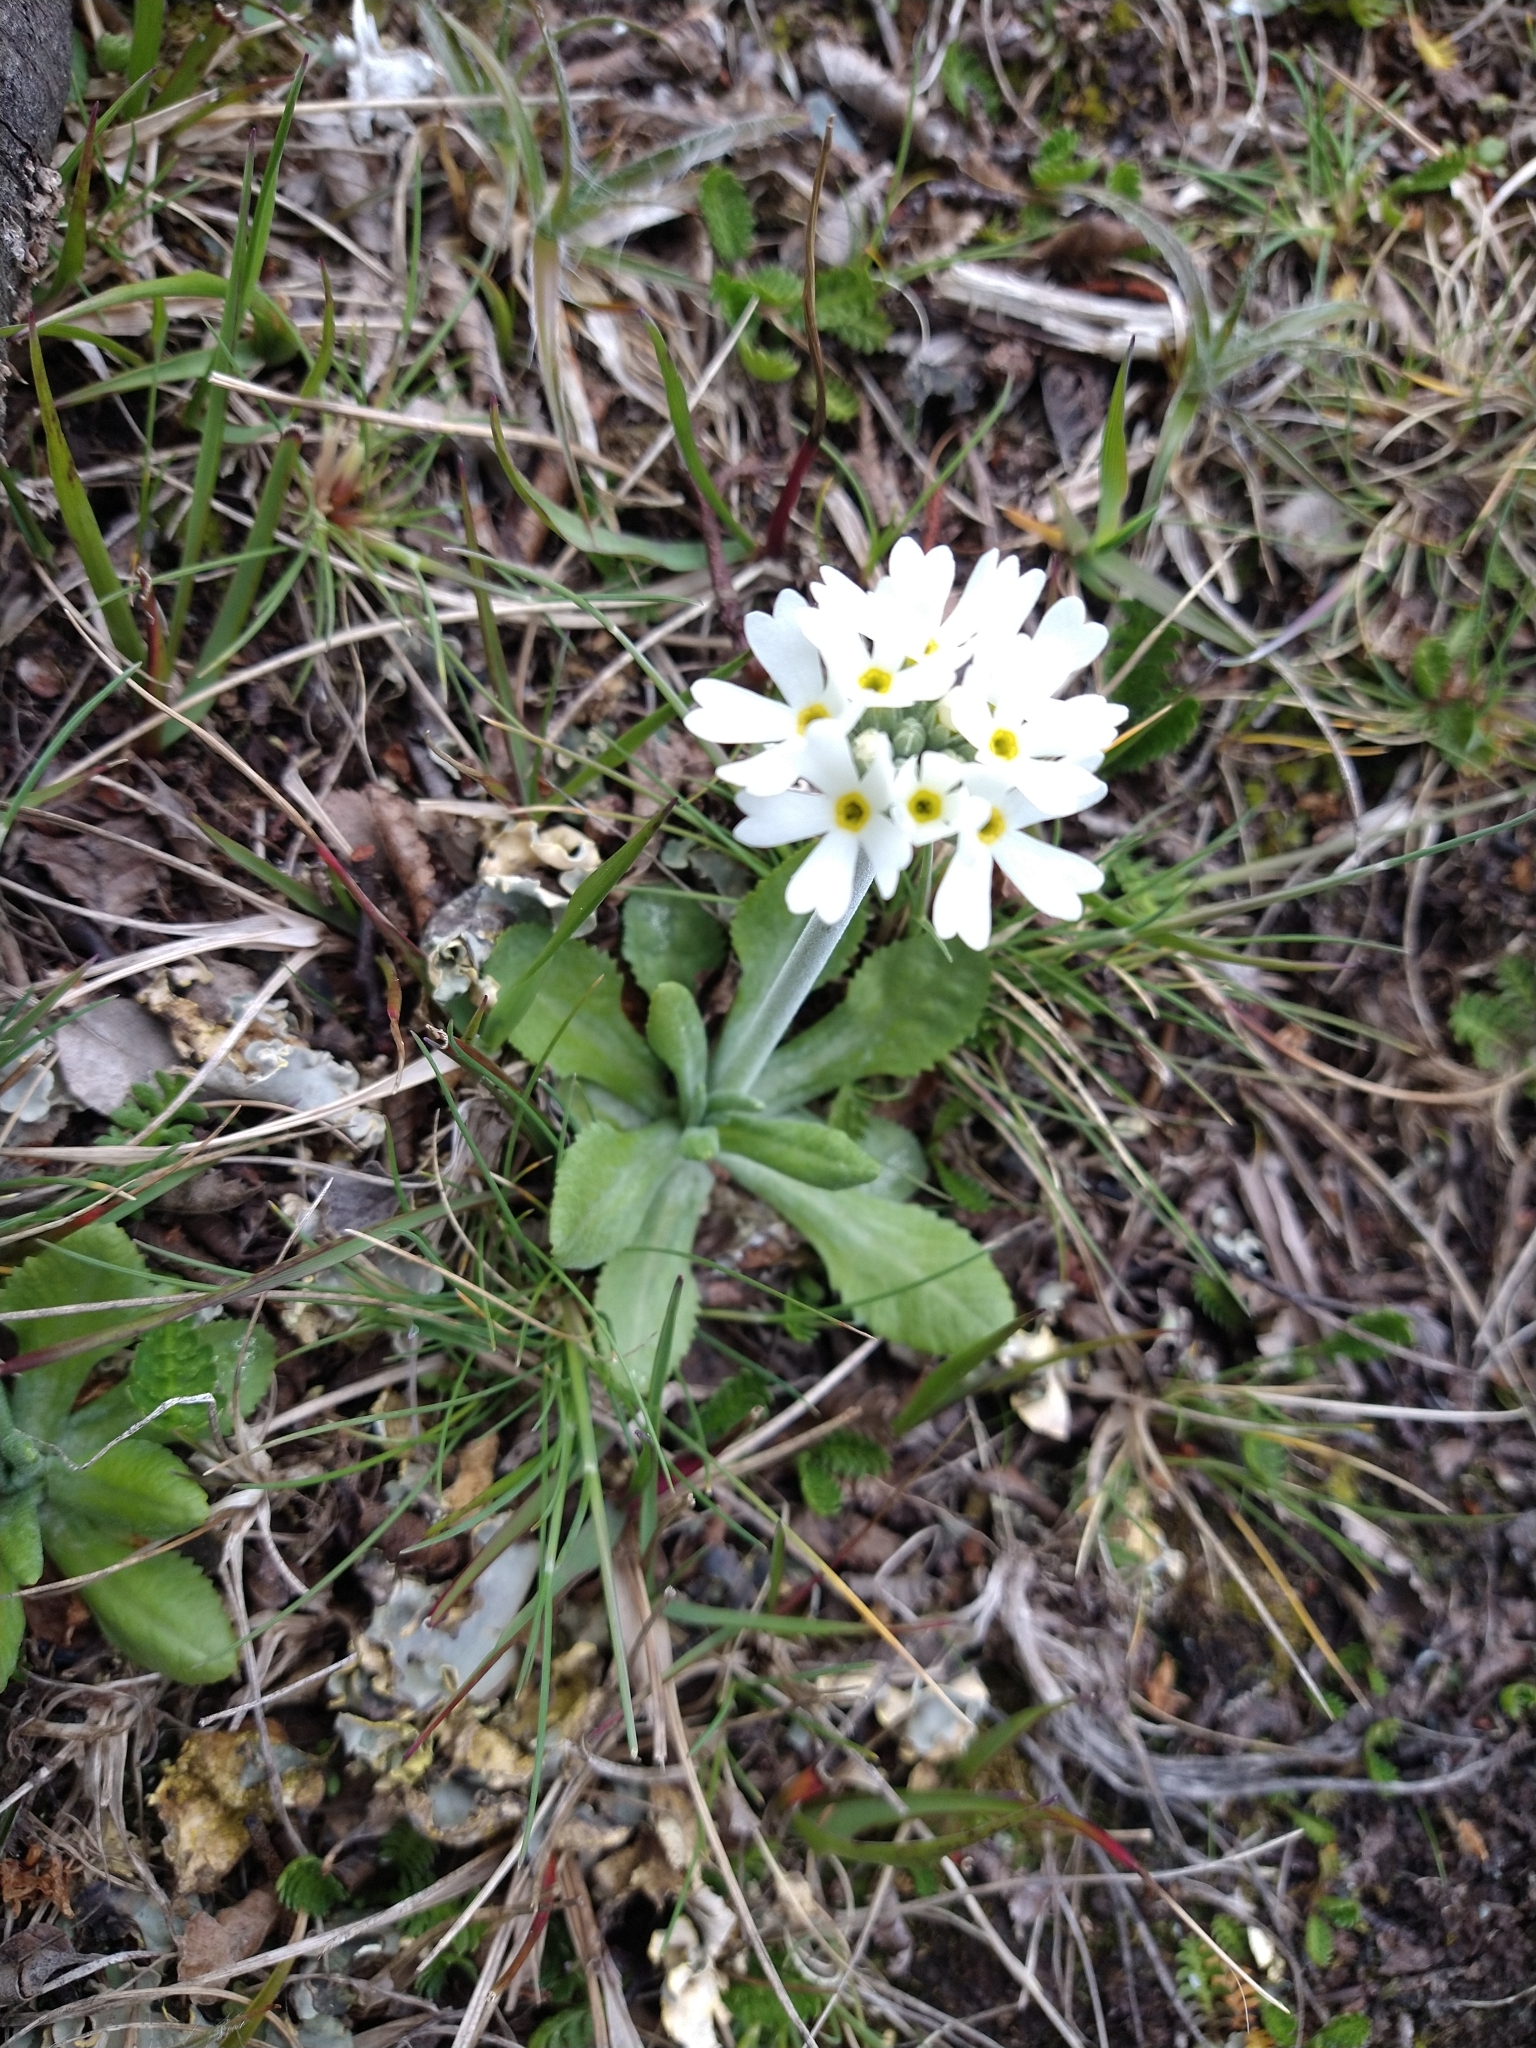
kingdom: Plantae
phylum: Tracheophyta
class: Magnoliopsida
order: Ericales
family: Primulaceae
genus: Primula
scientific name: Primula magellanica
